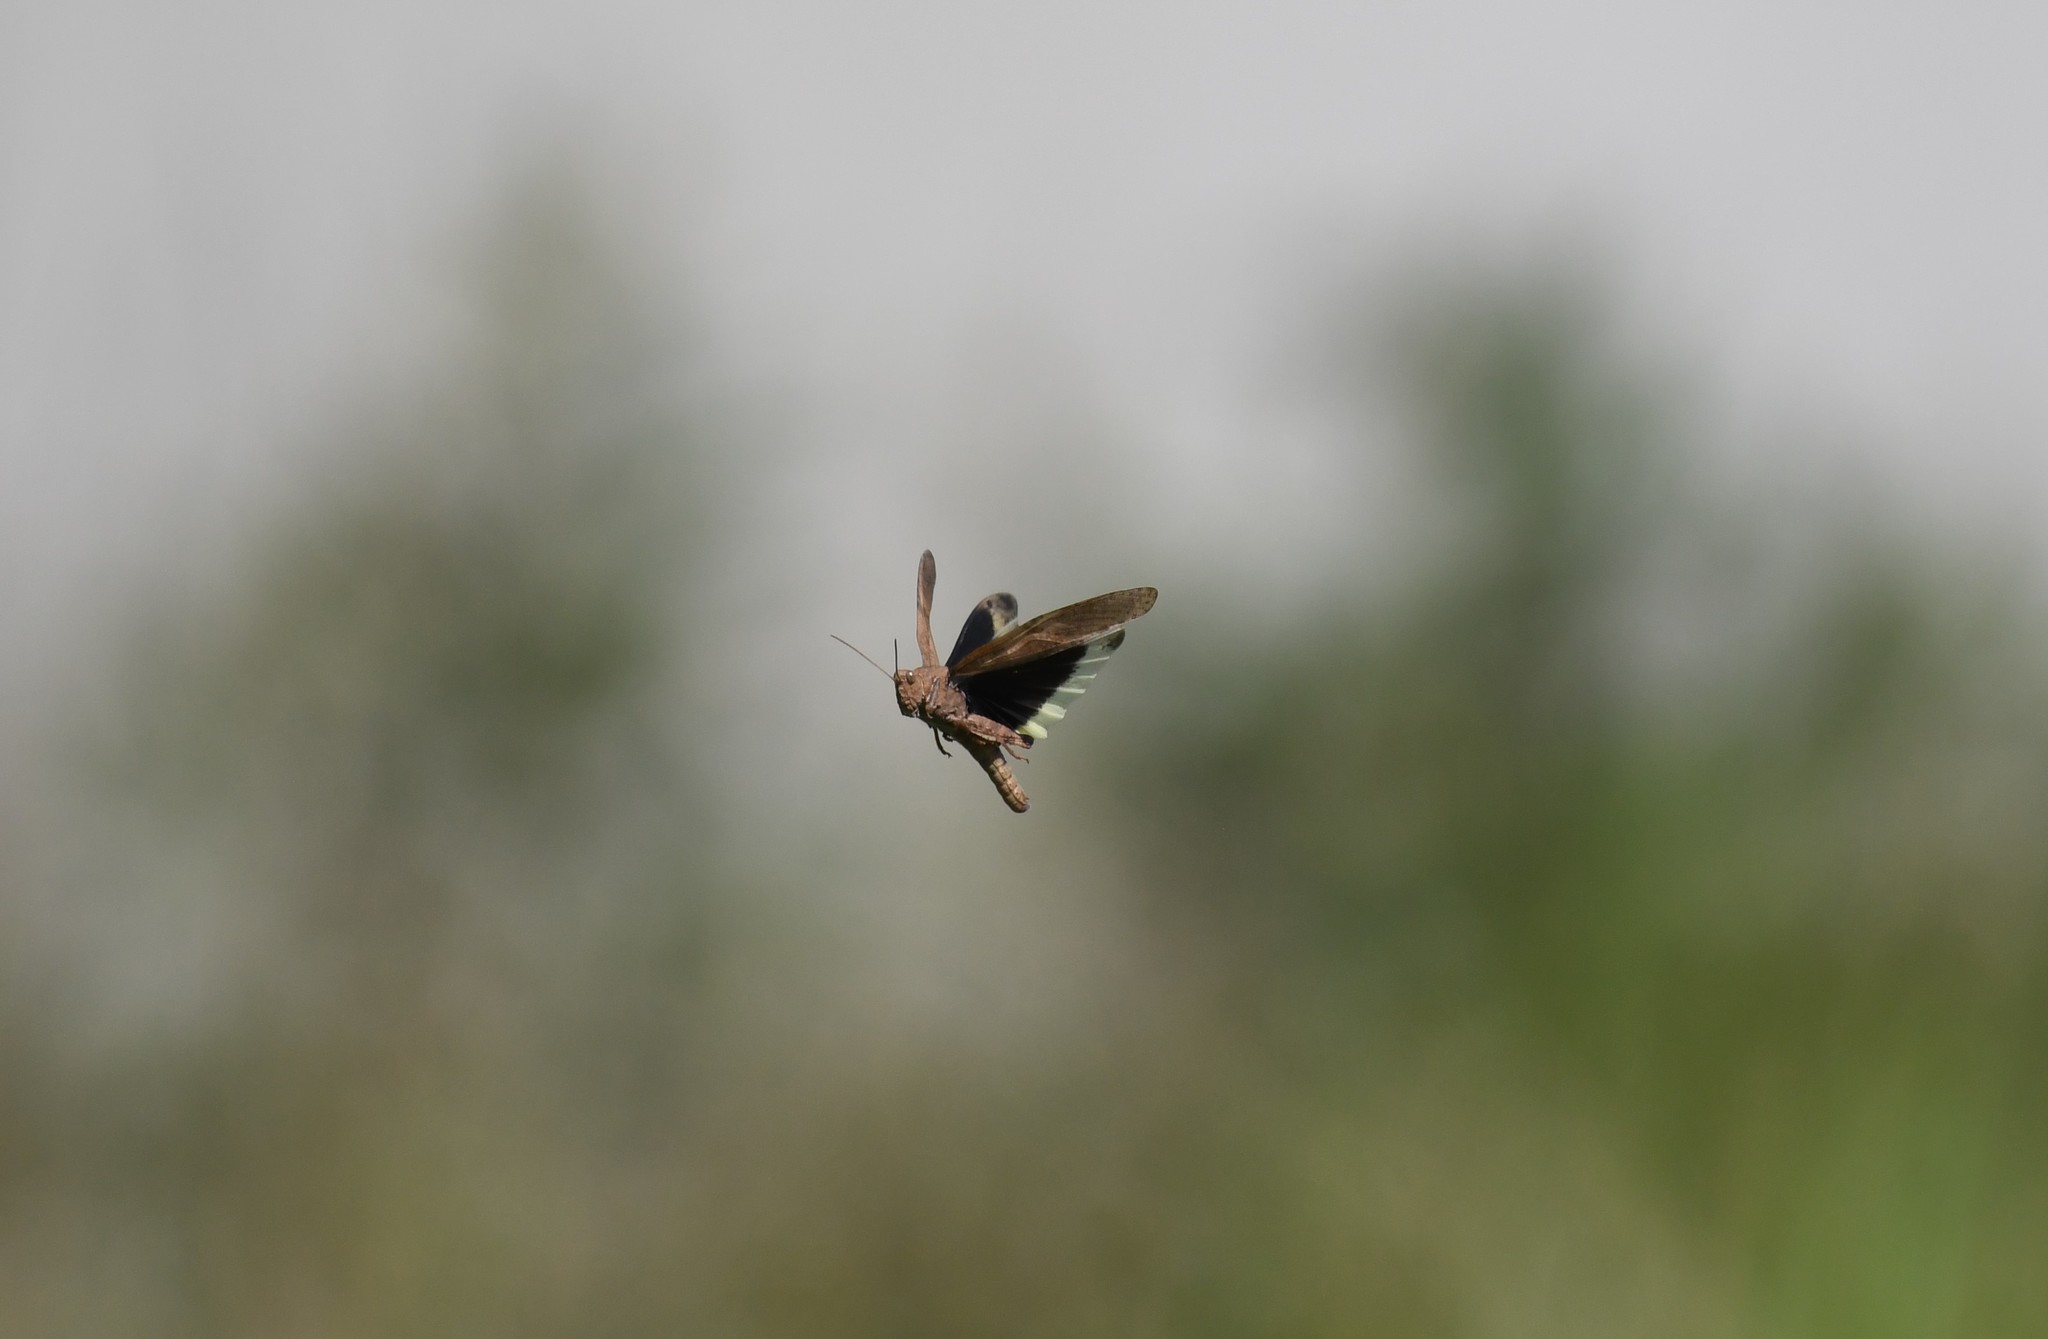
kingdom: Animalia
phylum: Arthropoda
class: Insecta
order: Orthoptera
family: Acrididae
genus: Dissosteira
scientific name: Dissosteira carolina
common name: Carolina grasshopper
